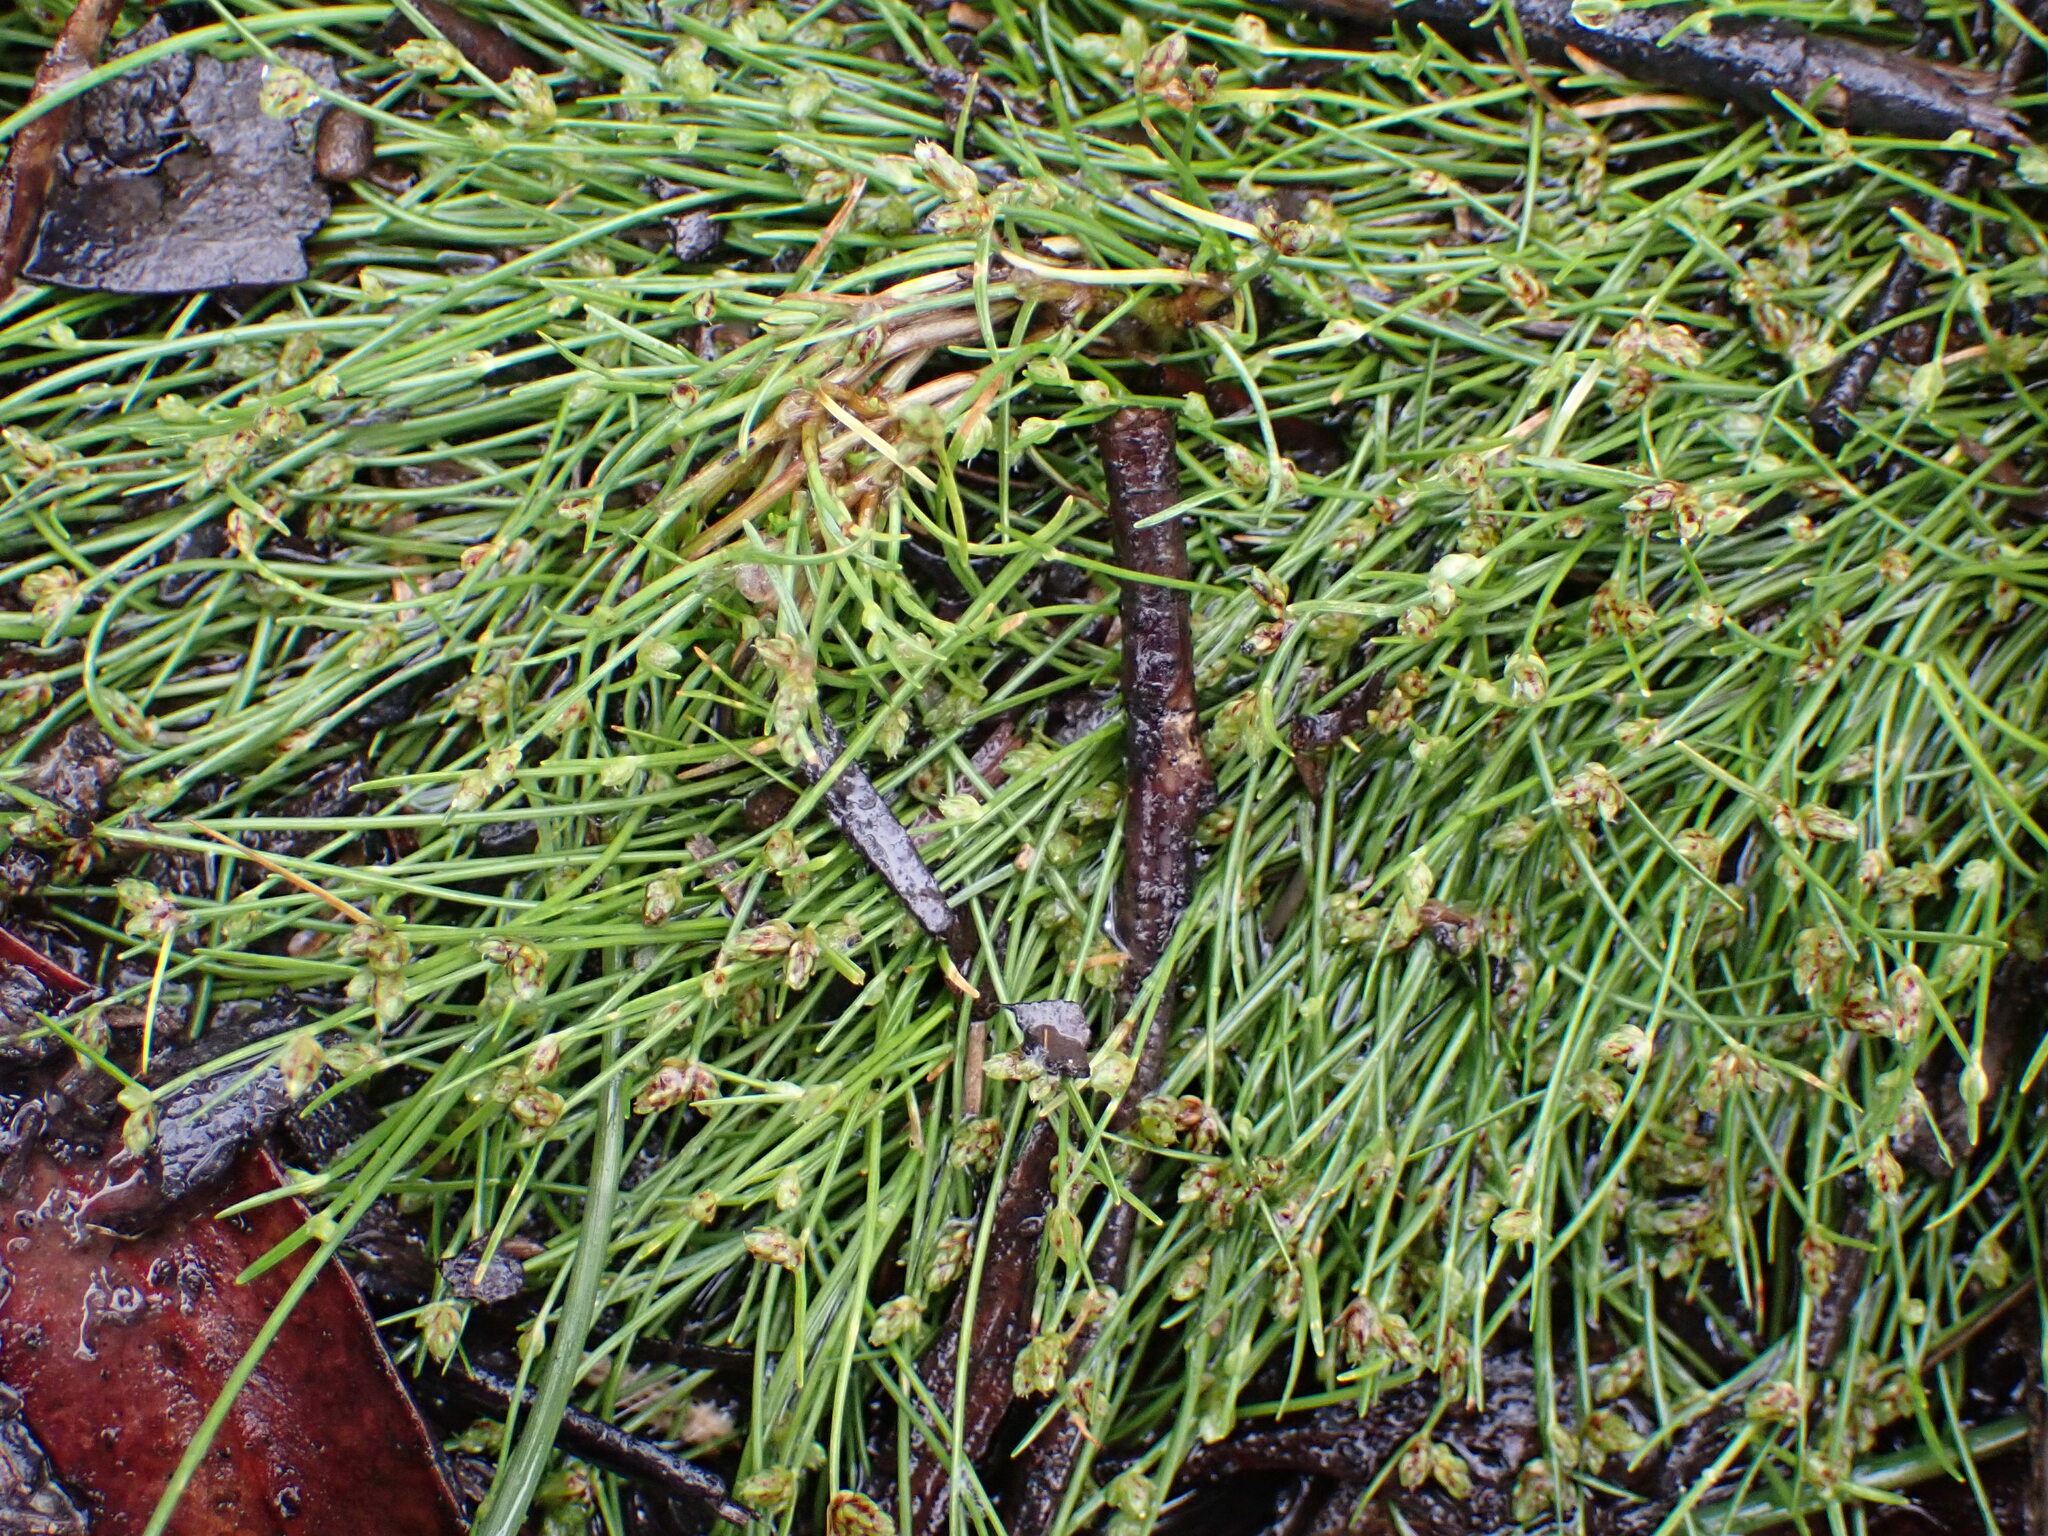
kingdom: Plantae
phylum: Tracheophyta
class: Liliopsida
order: Poales
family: Cyperaceae
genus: Isolepis
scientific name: Isolepis subtilissima
